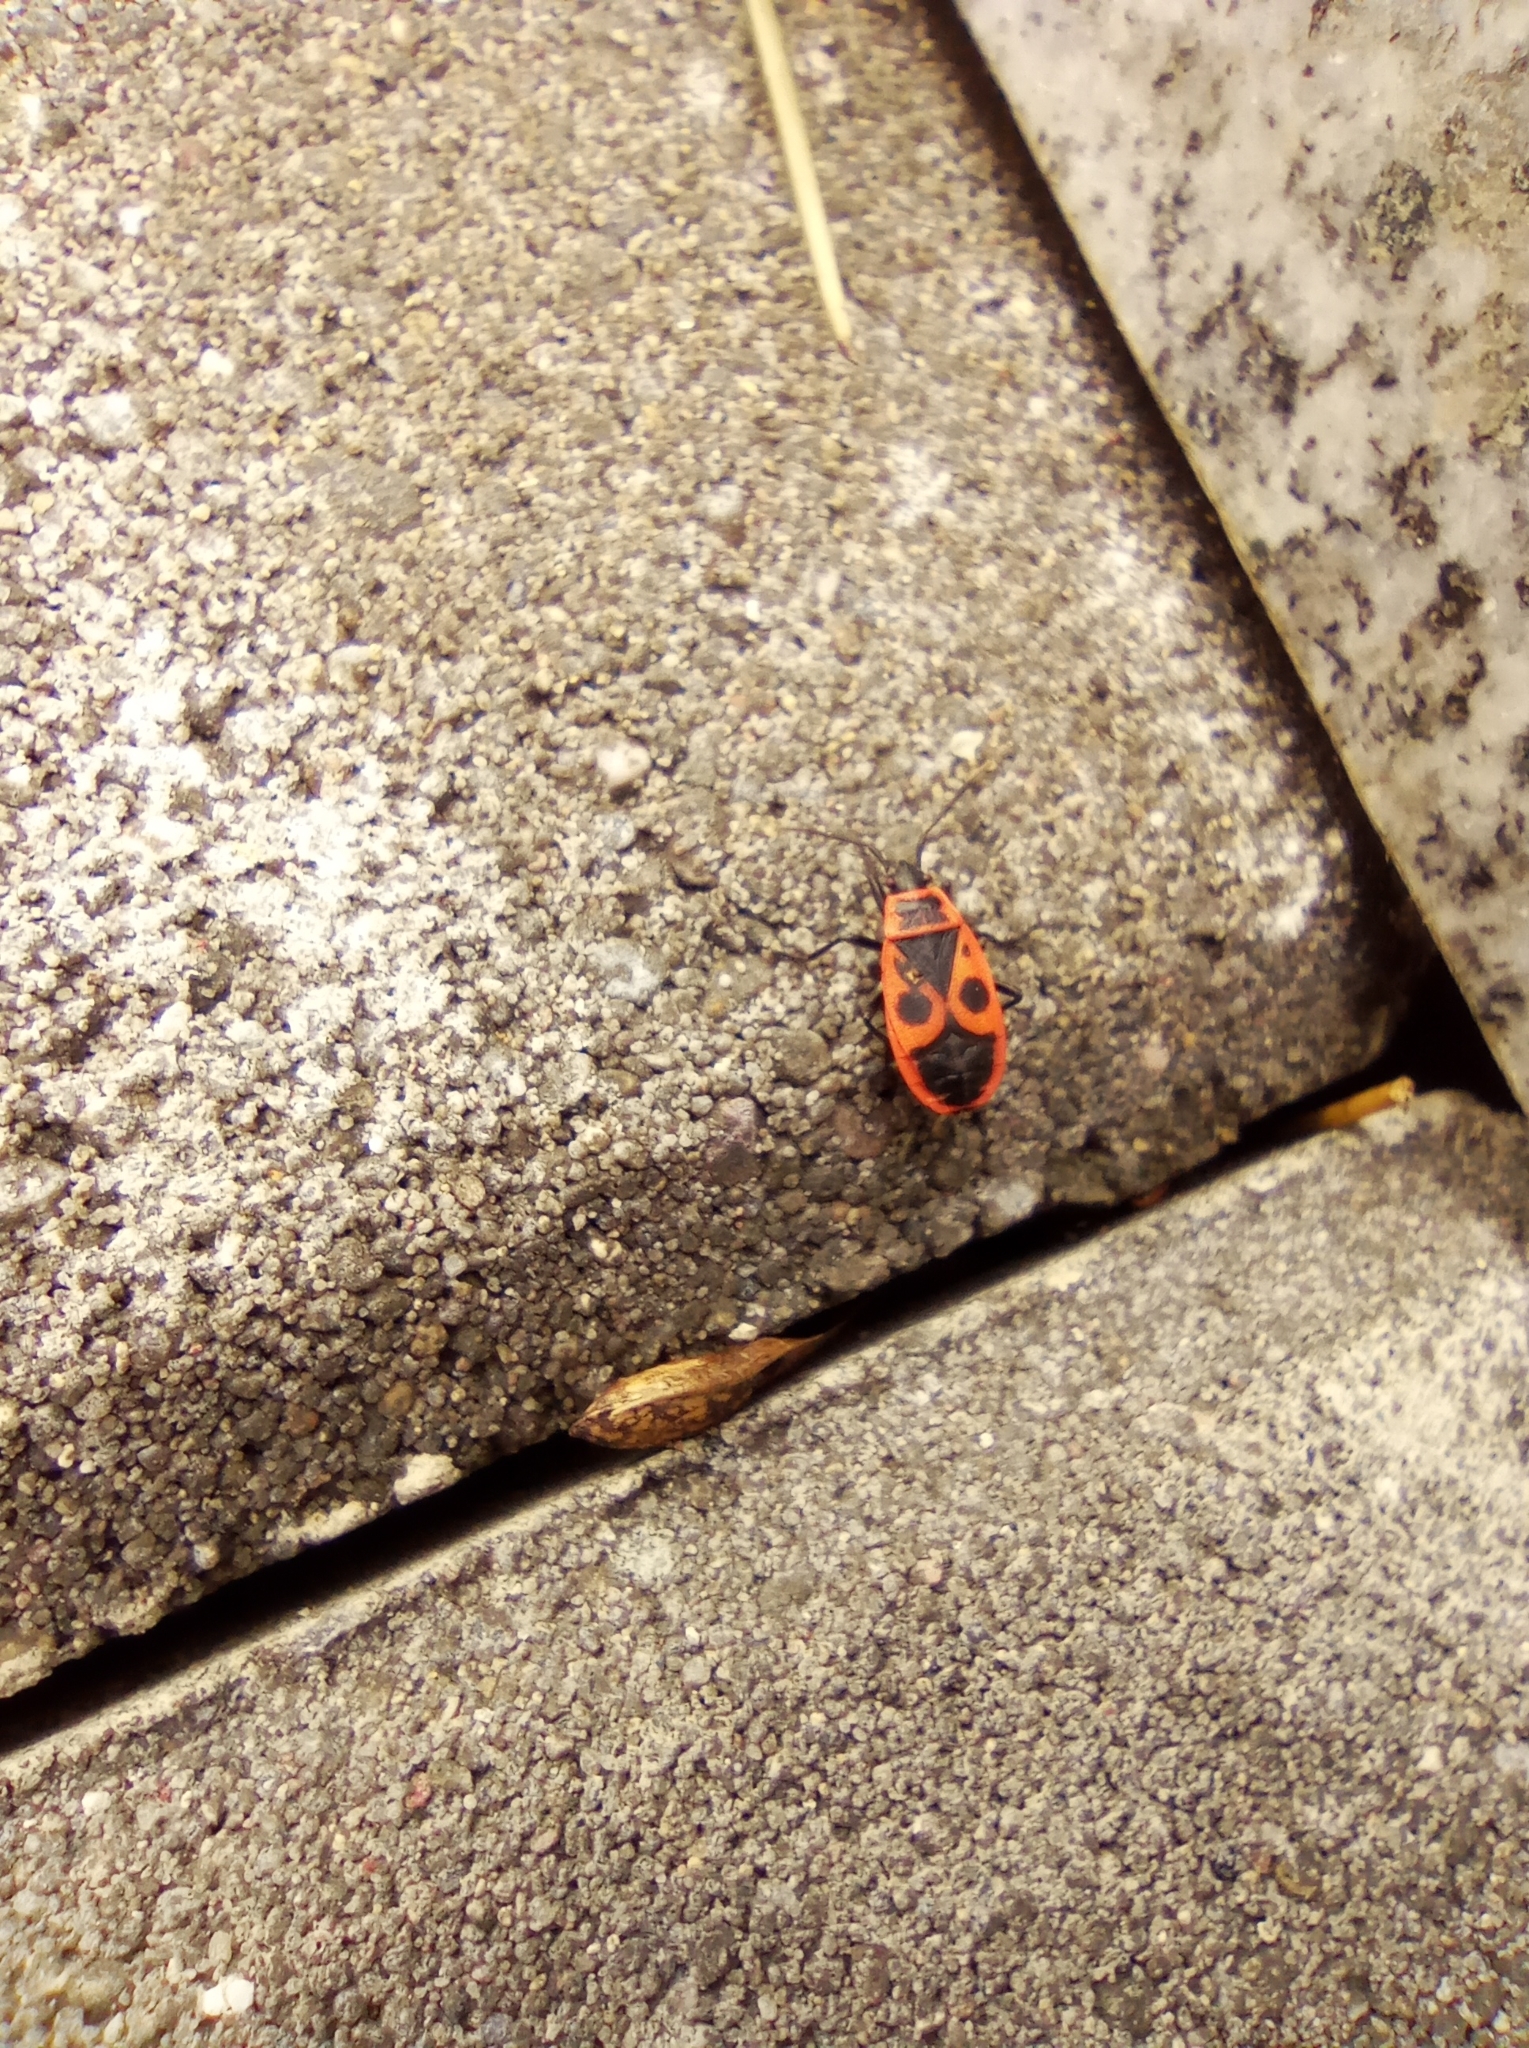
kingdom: Animalia
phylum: Arthropoda
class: Insecta
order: Hemiptera
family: Pyrrhocoridae
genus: Pyrrhocoris
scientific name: Pyrrhocoris apterus
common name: Firebug
